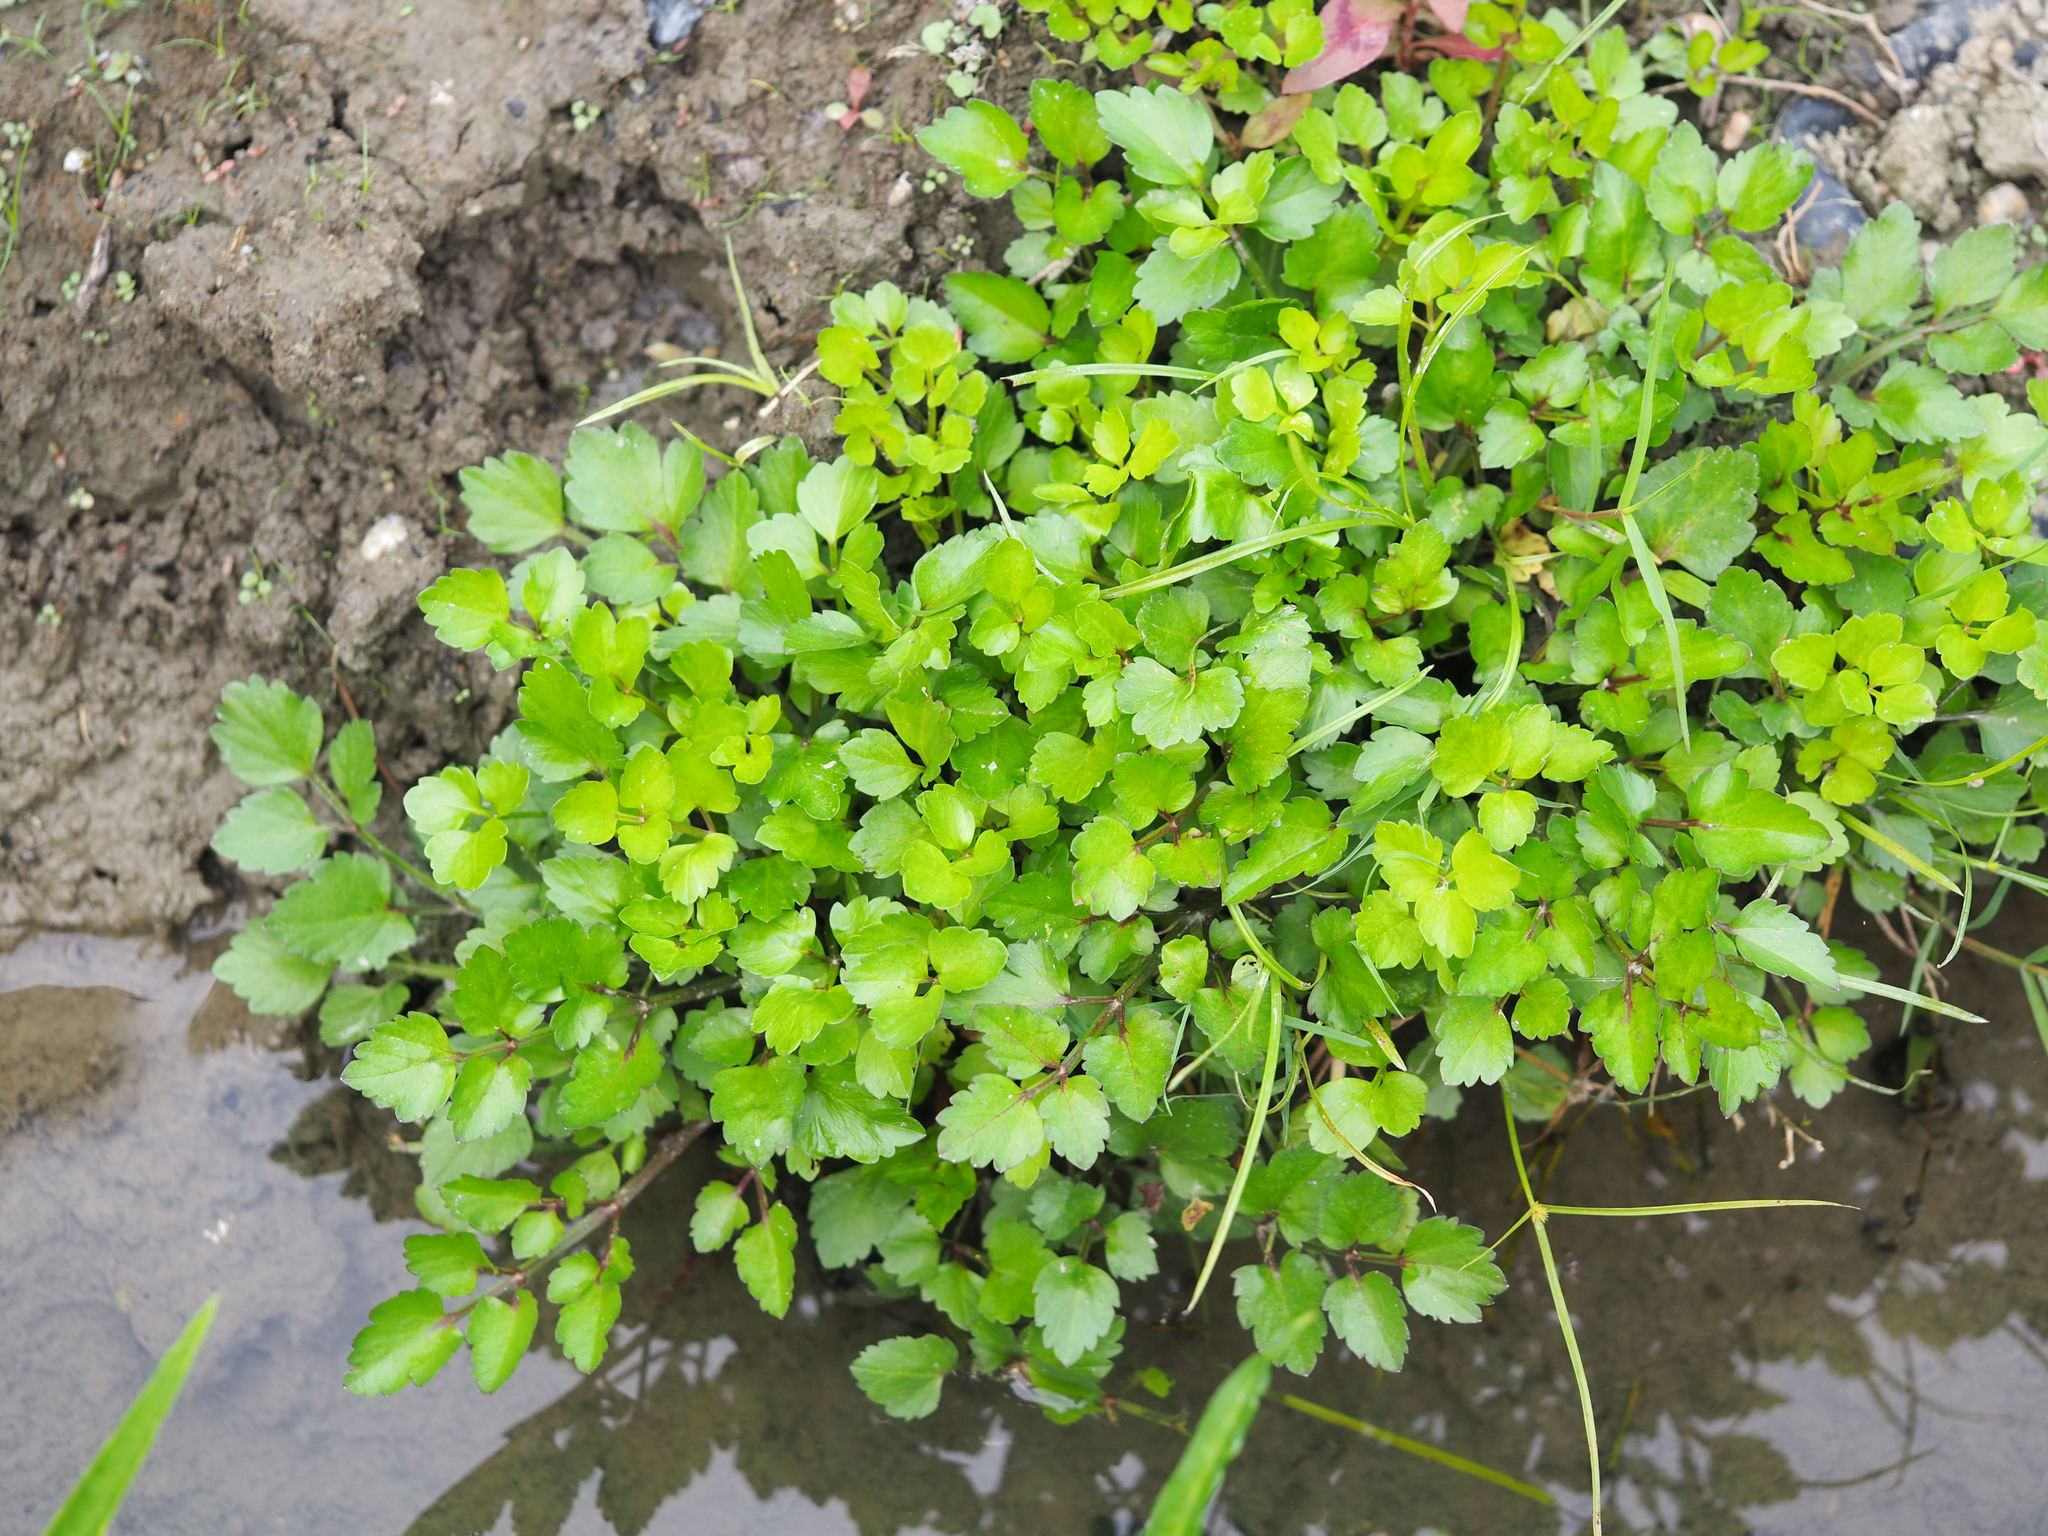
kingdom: Plantae
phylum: Tracheophyta
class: Magnoliopsida
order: Apiales
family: Apiaceae
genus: Apium
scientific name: Apium graveolens
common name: Wild celery
